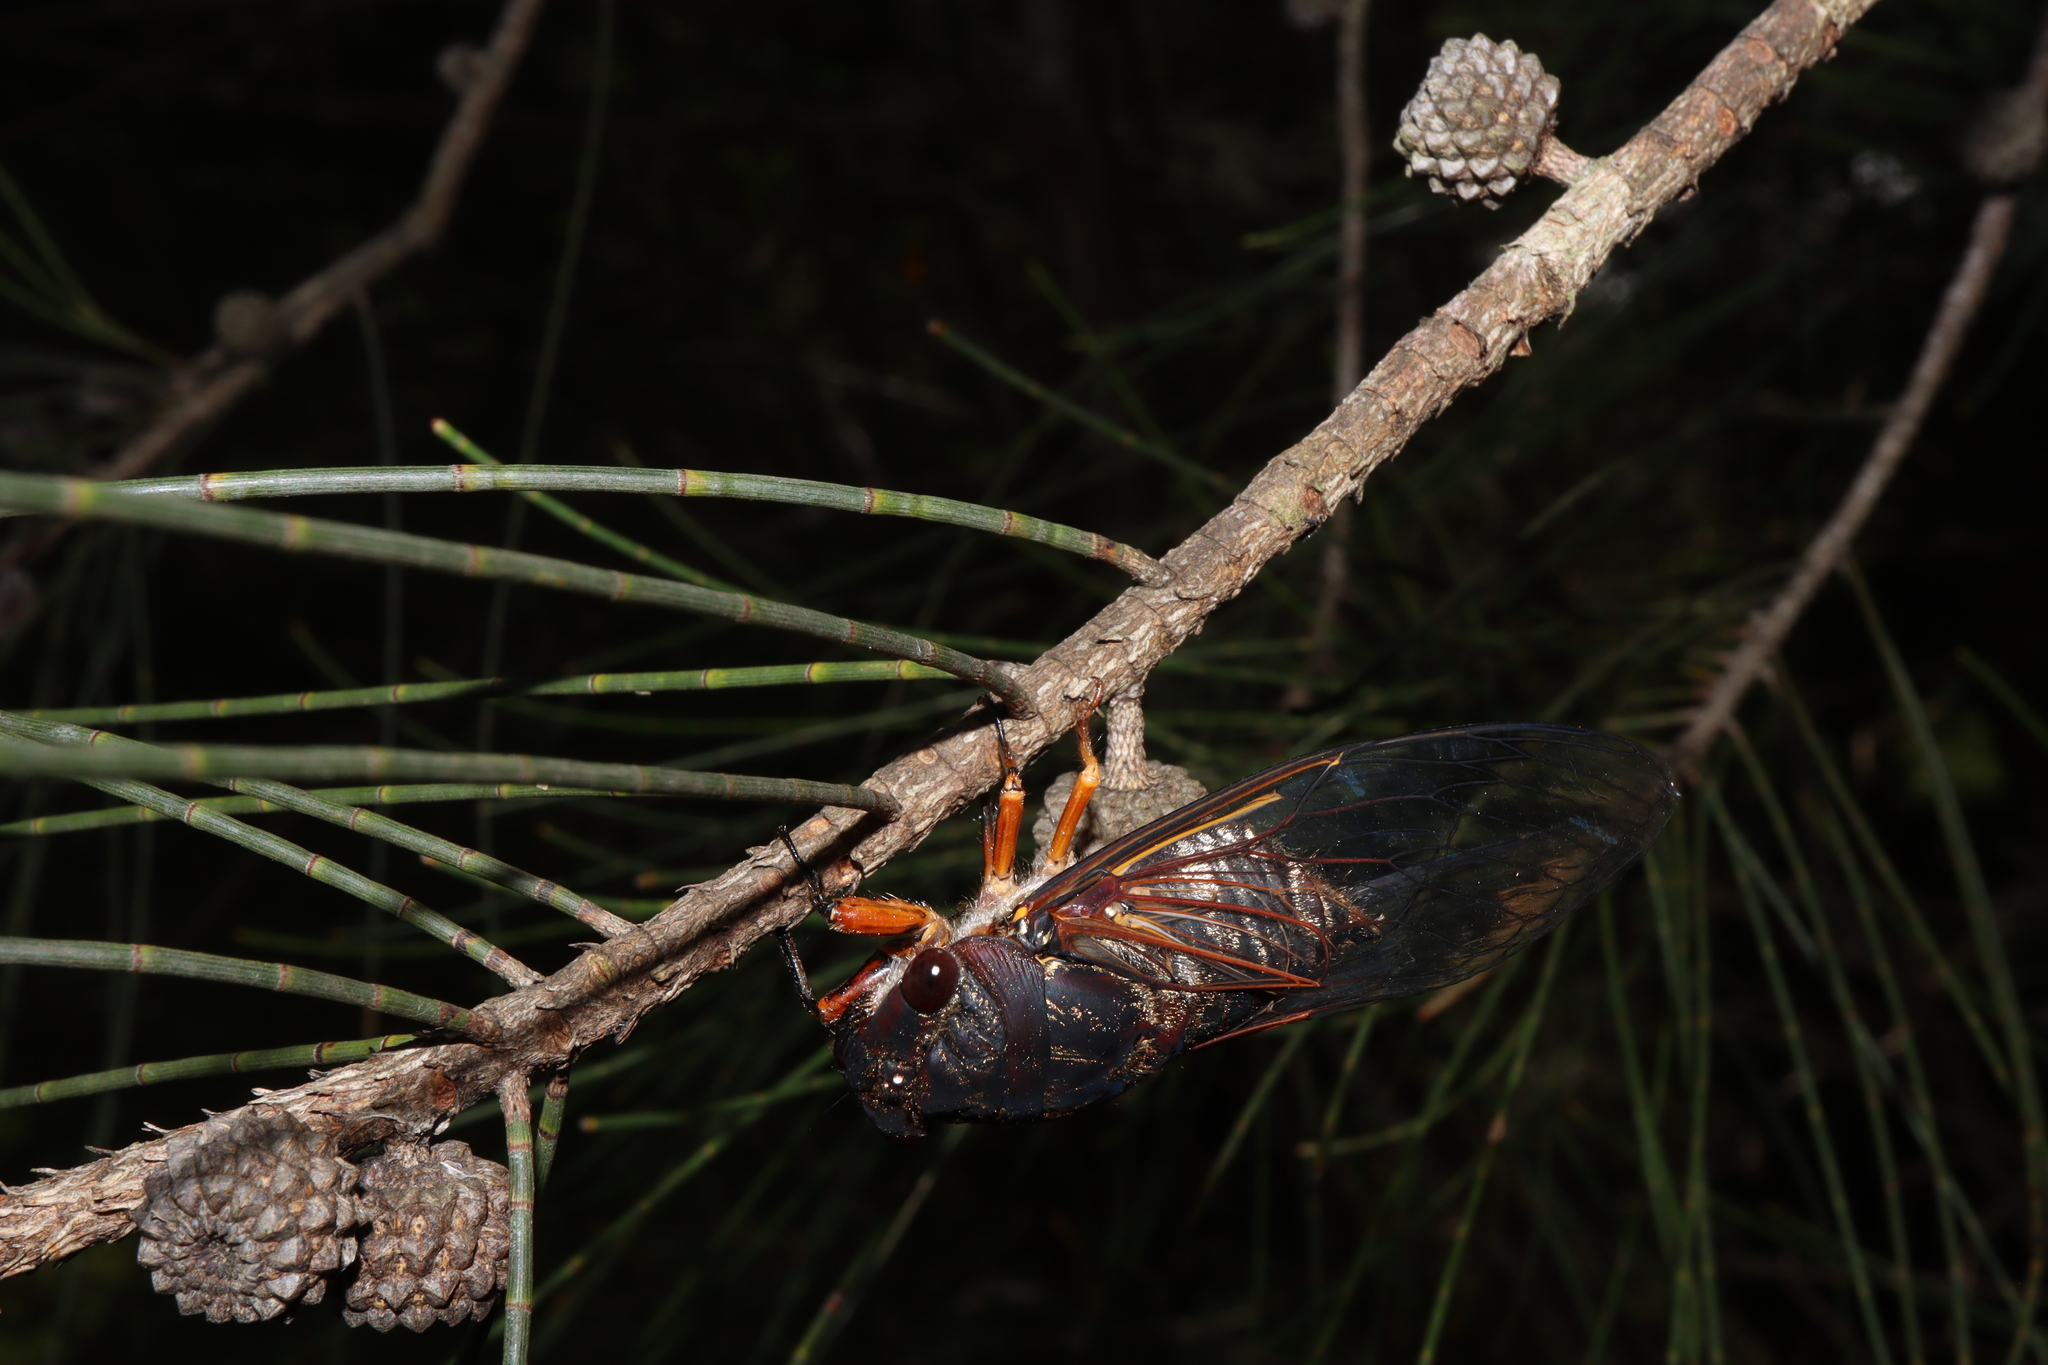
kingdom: Animalia
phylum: Arthropoda
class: Insecta
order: Hemiptera
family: Cicadidae
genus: Psaltoda
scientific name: Psaltoda plaga
